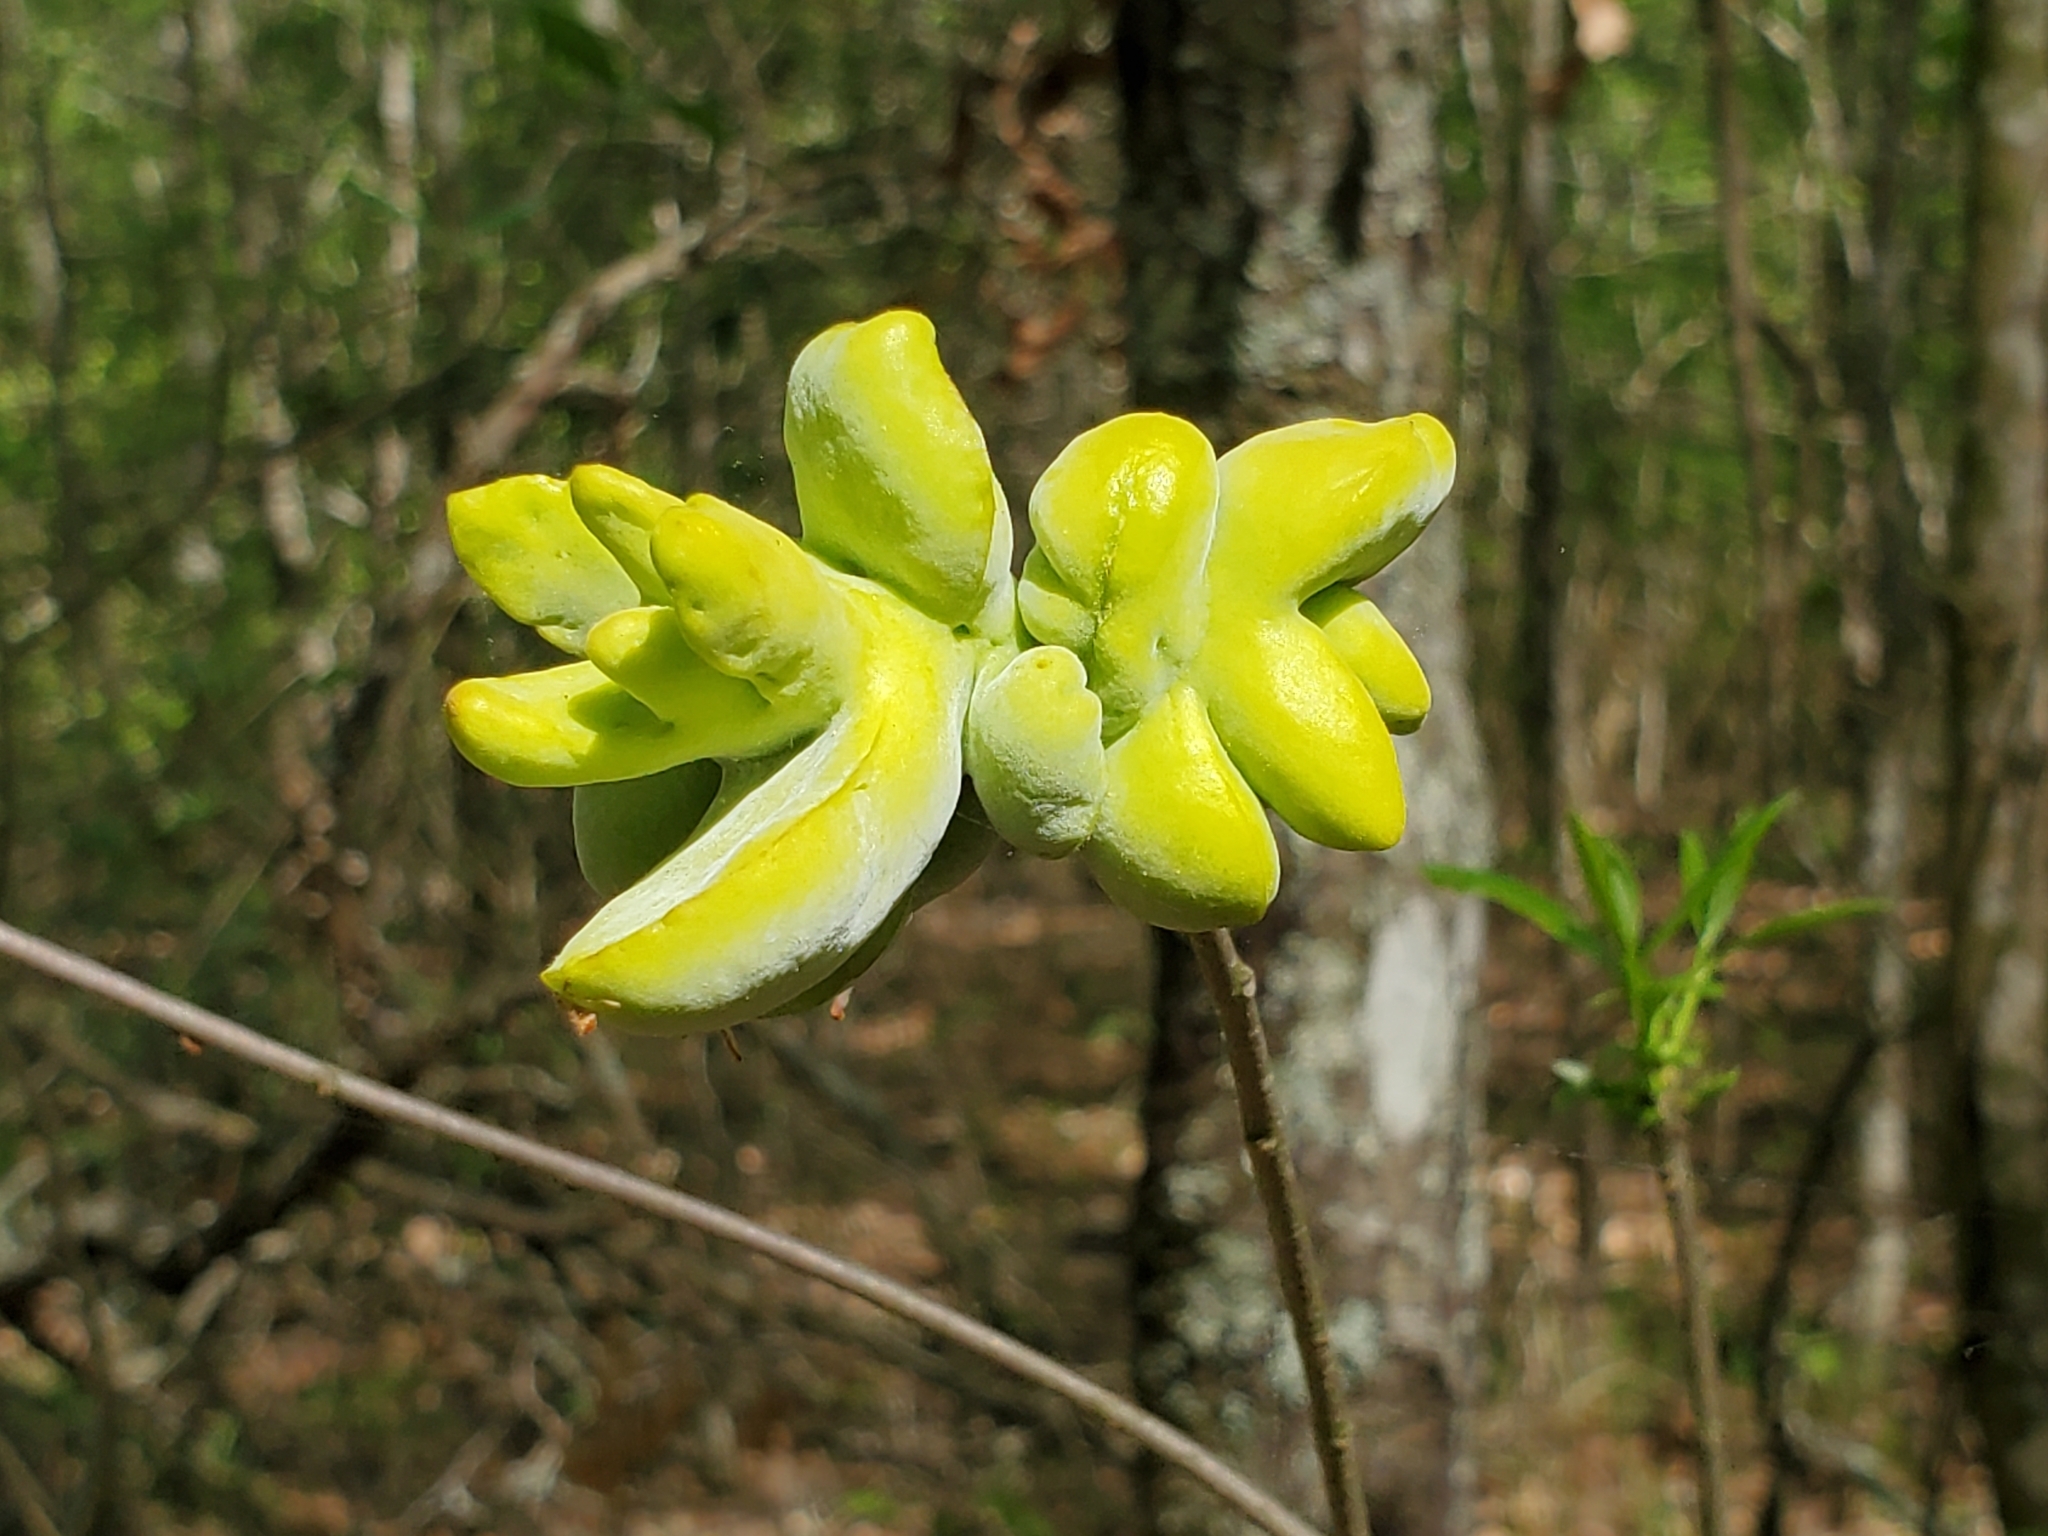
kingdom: Fungi
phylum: Basidiomycota
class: Exobasidiomycetes
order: Exobasidiales
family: Exobasidiaceae
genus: Exobasidium
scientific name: Exobasidium symploci
